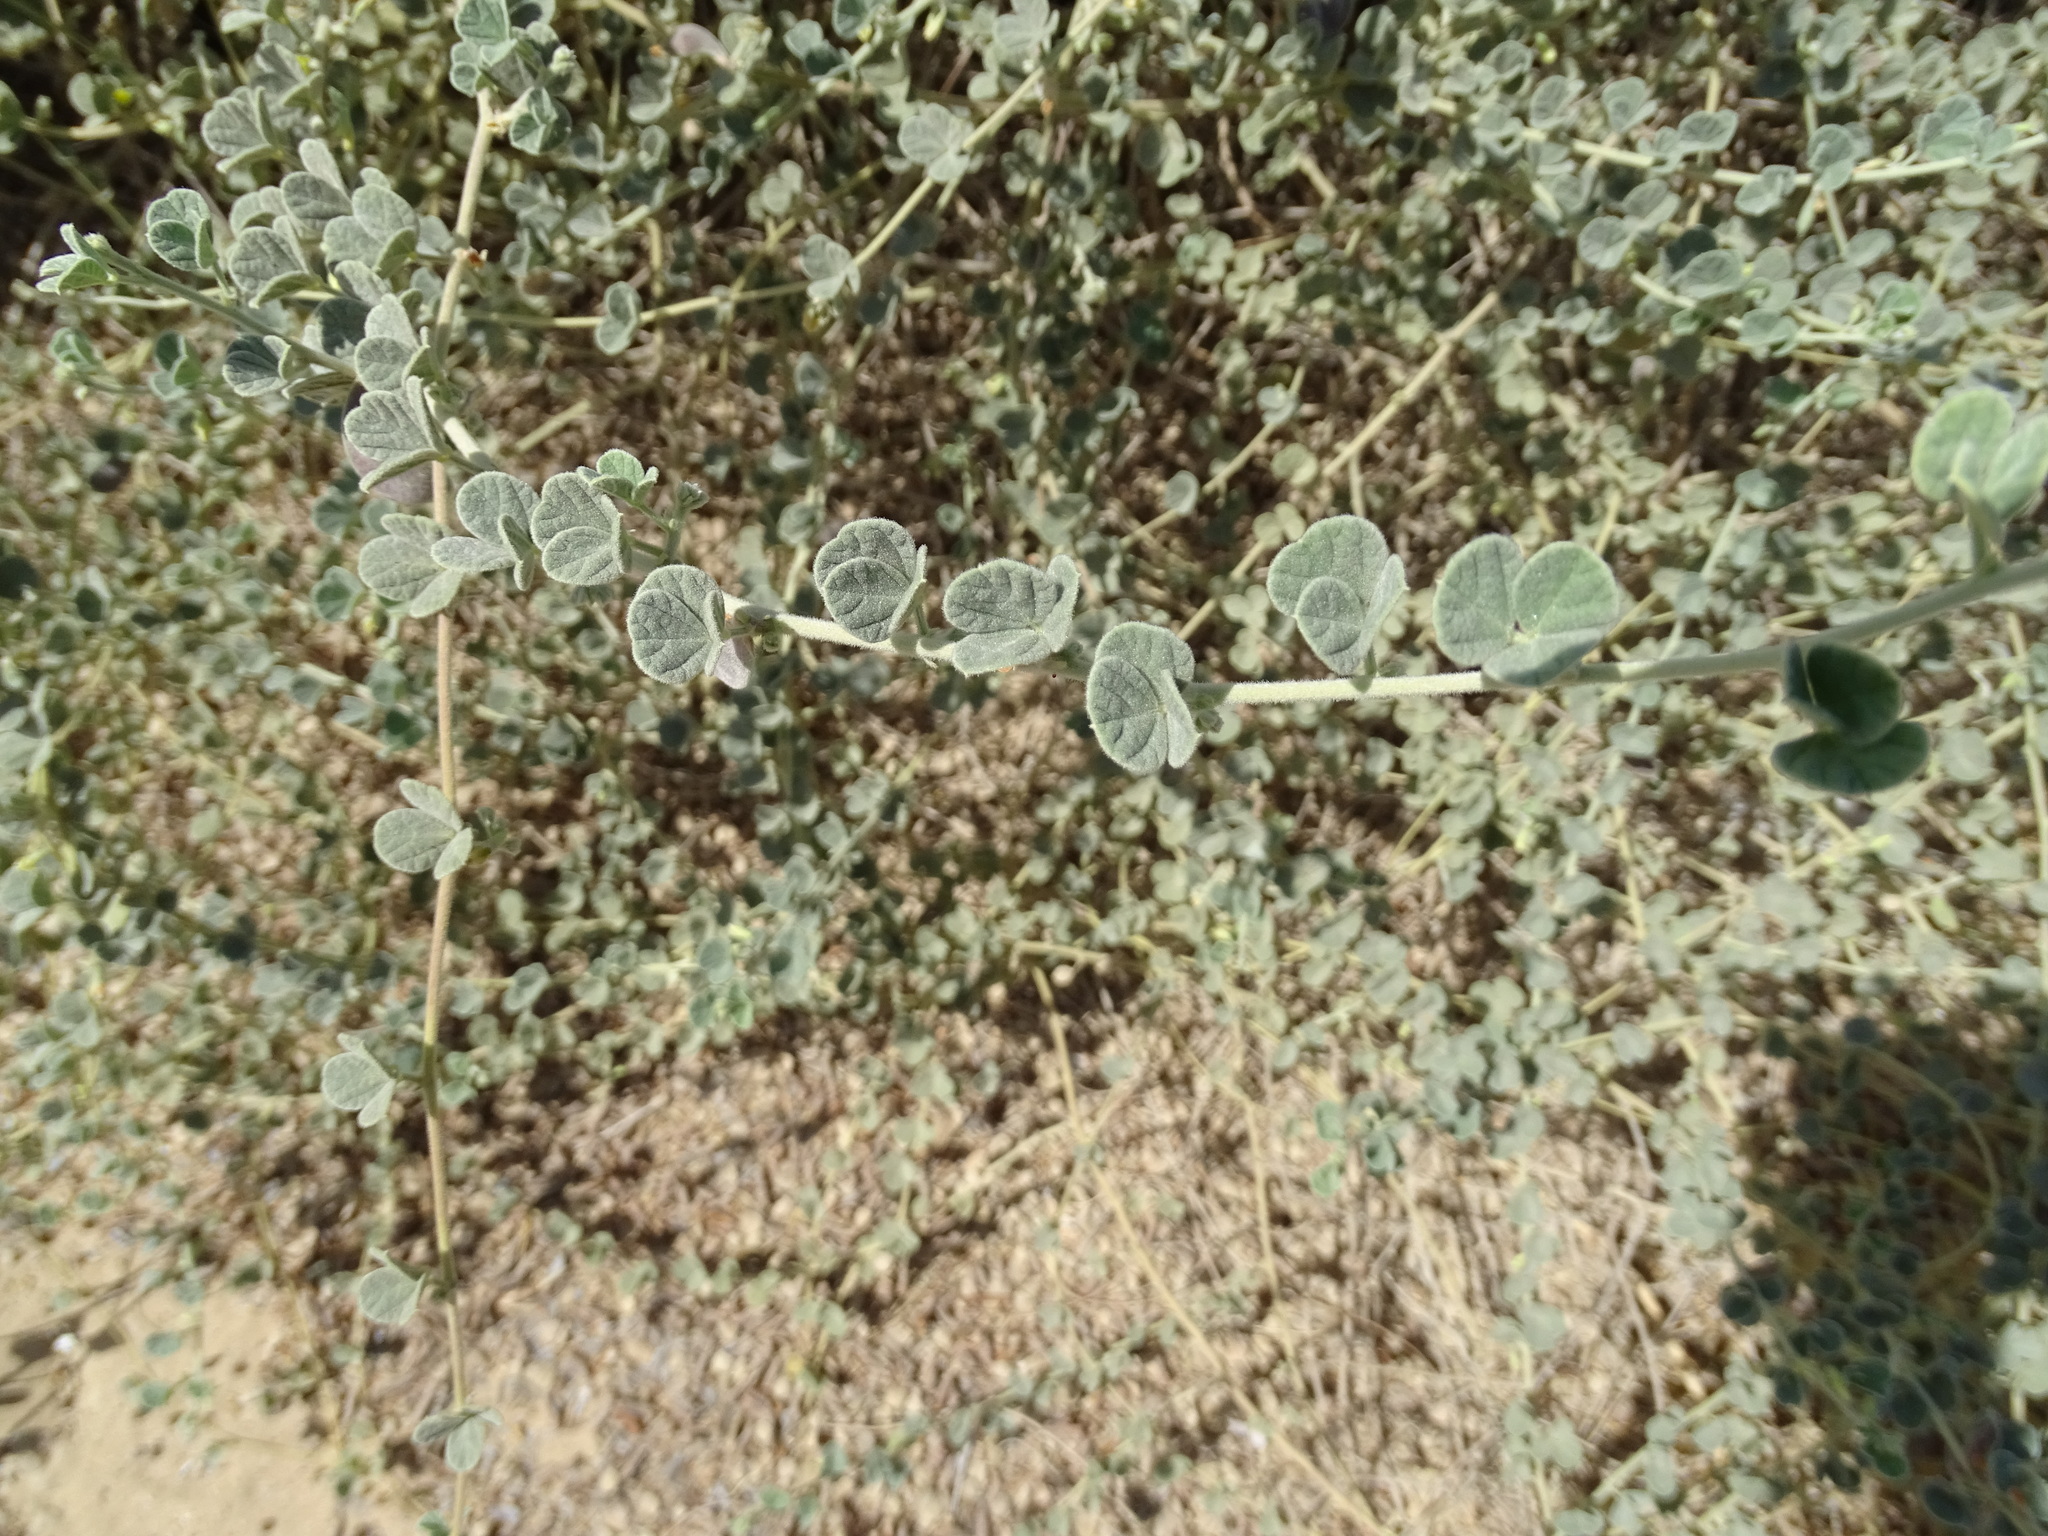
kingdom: Plantae
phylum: Tracheophyta
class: Magnoliopsida
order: Fabales
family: Fabaceae
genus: Rhynchosia
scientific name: Rhynchosia schimperi
